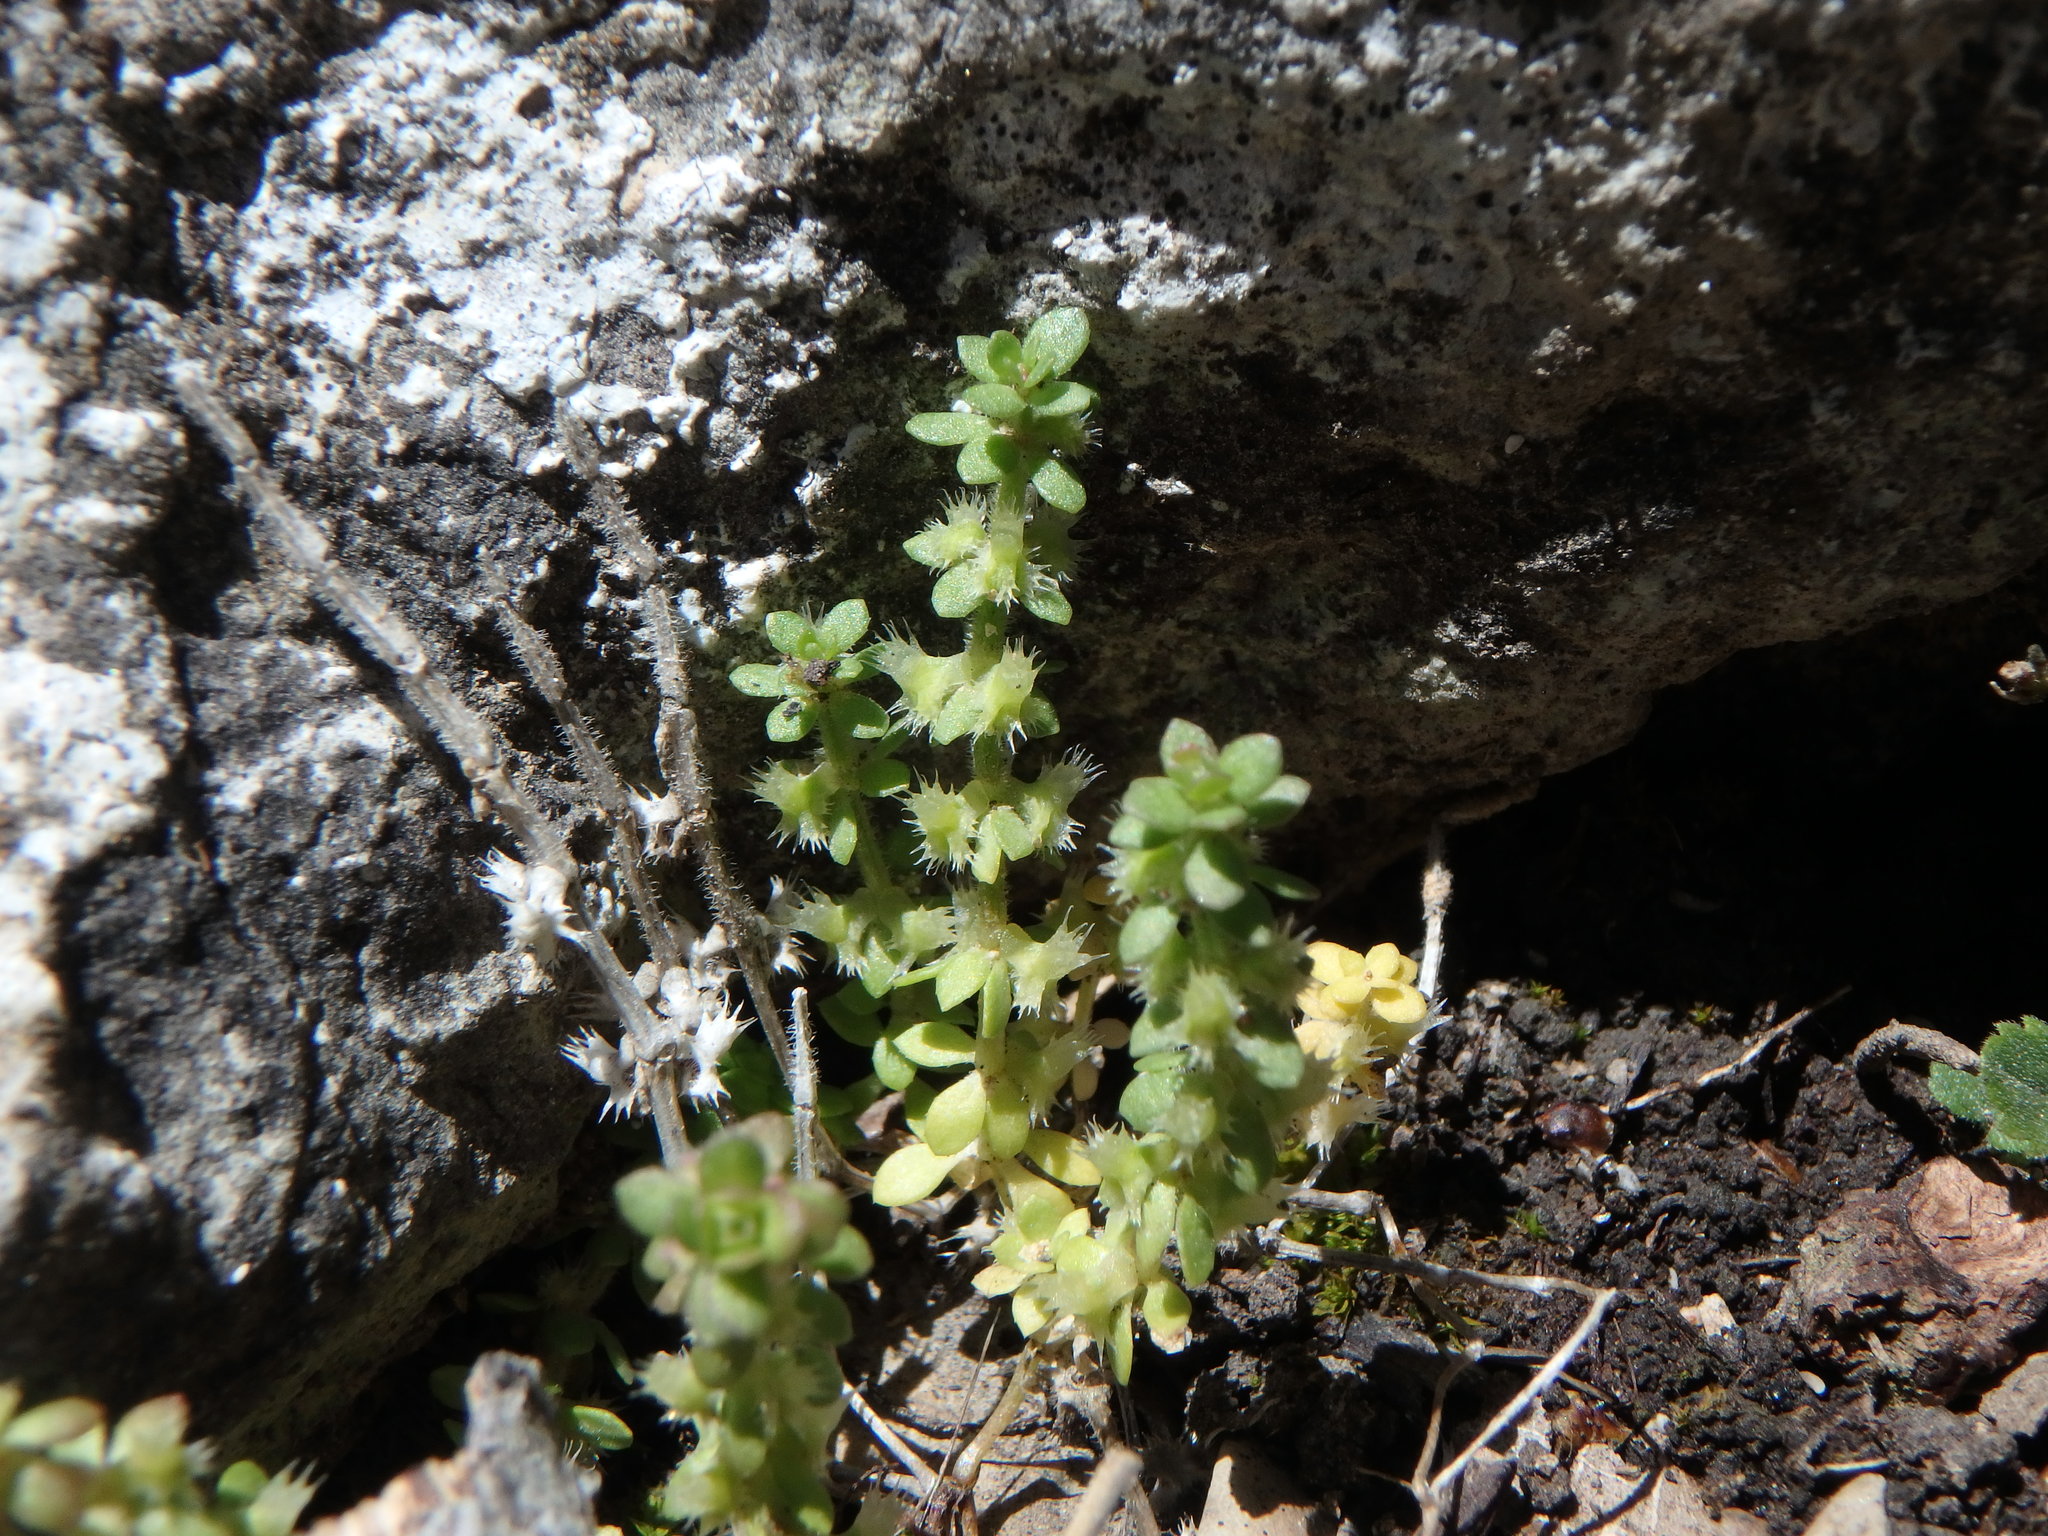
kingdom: Plantae
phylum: Tracheophyta
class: Magnoliopsida
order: Gentianales
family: Rubiaceae
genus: Valantia
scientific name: Valantia muralis
